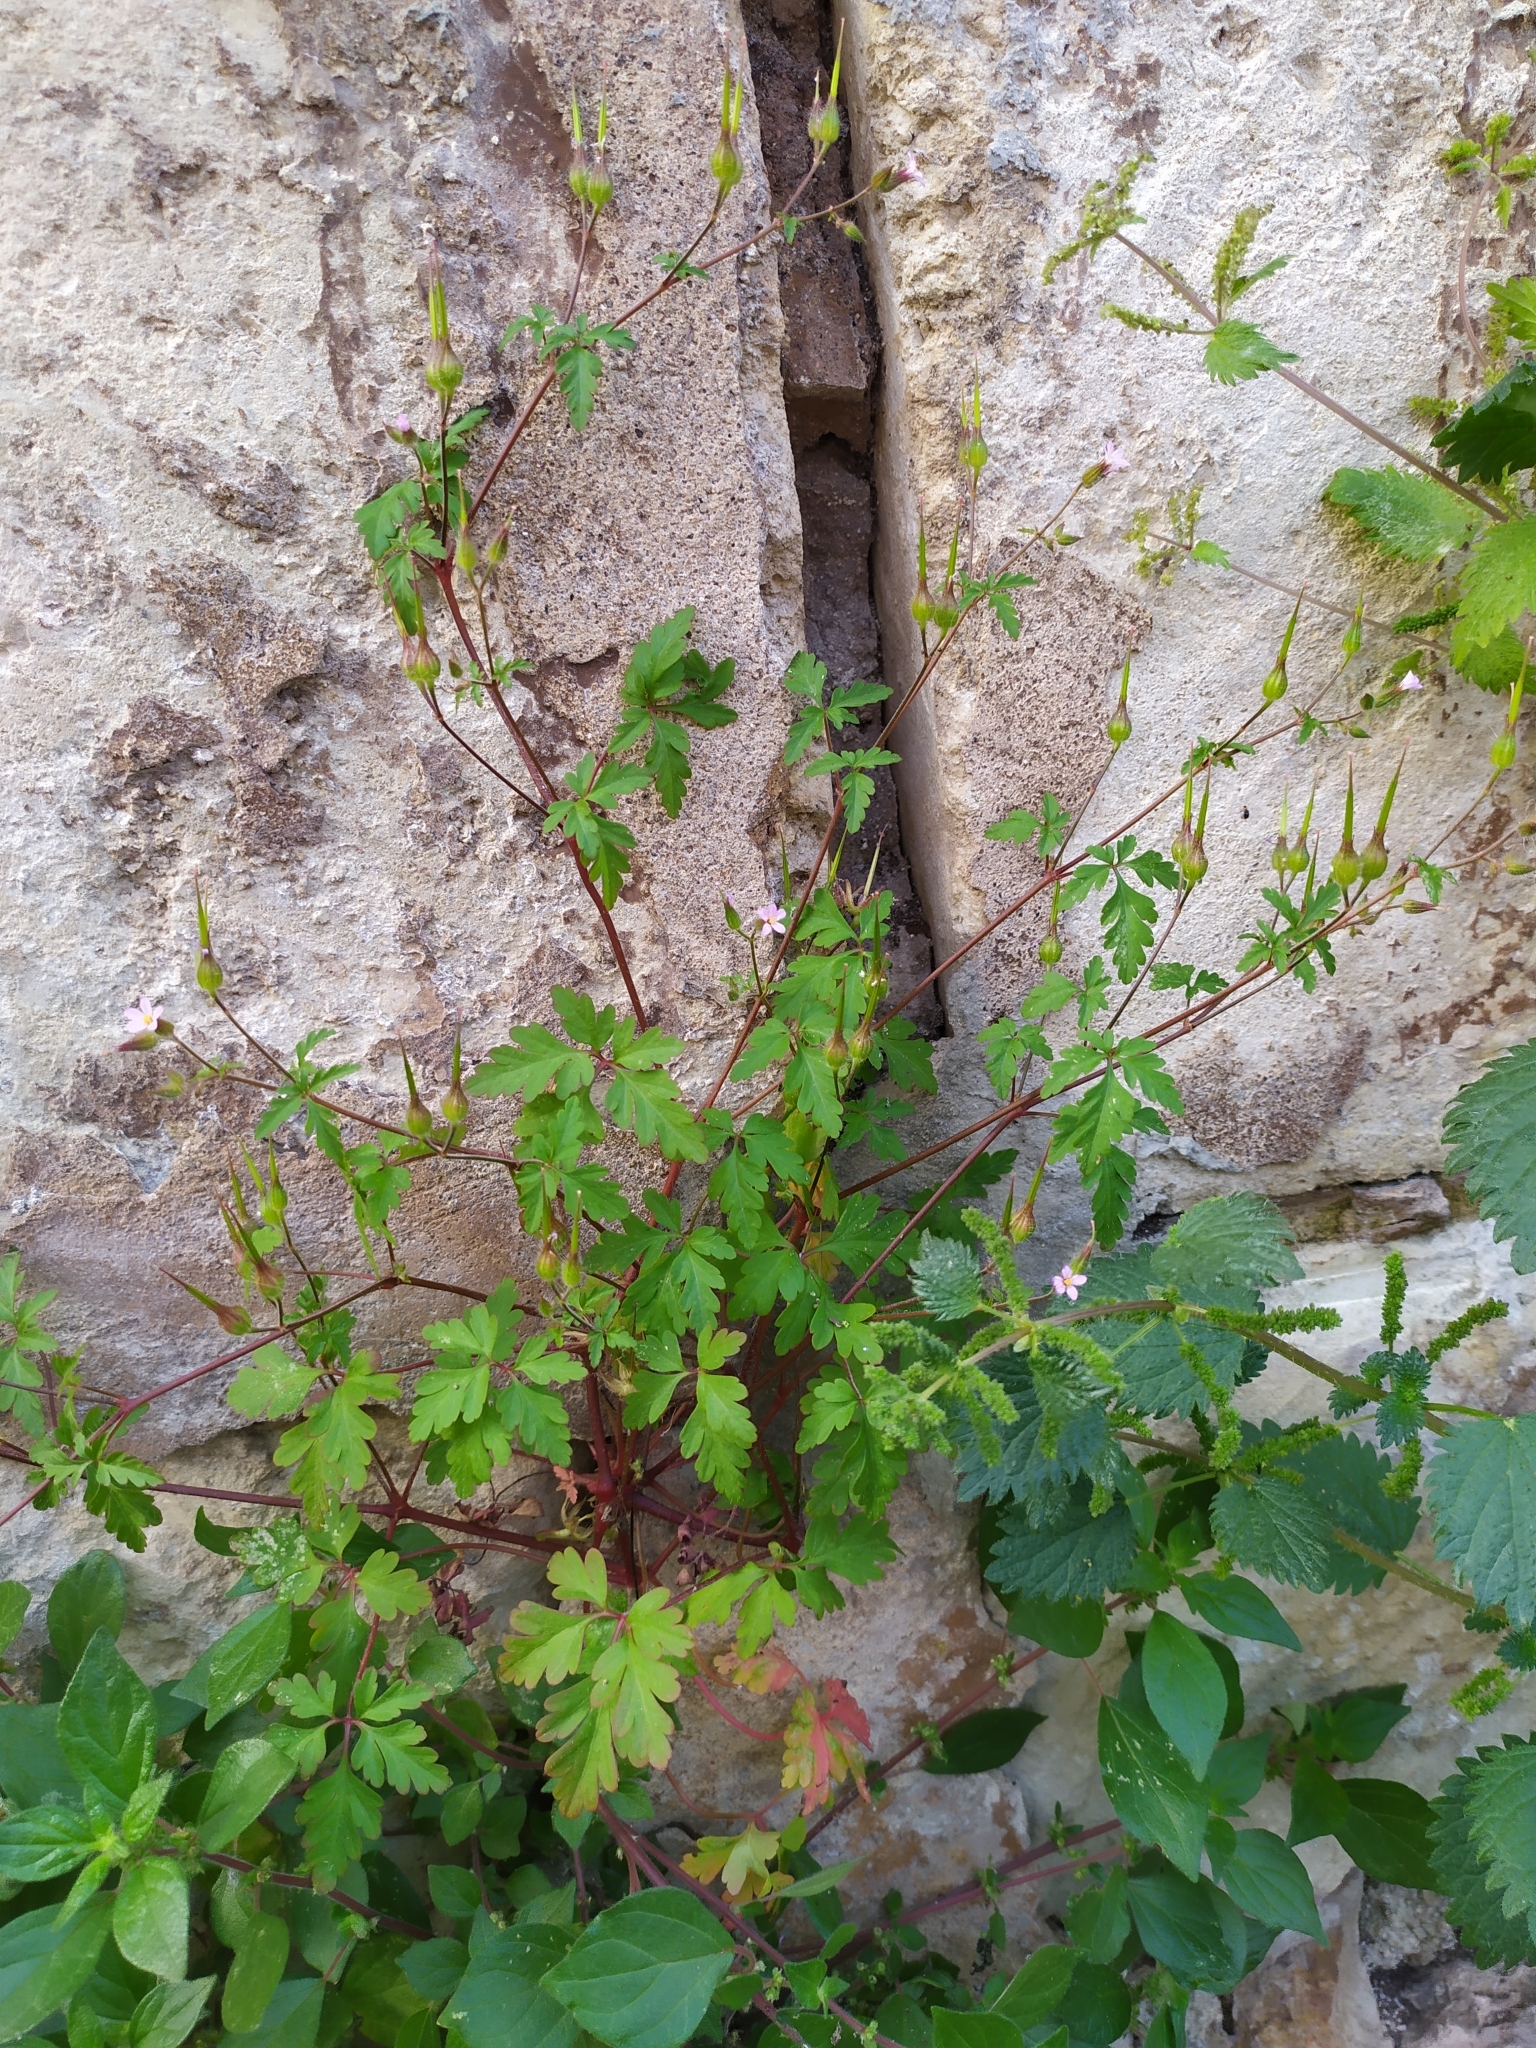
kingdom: Plantae
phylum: Tracheophyta
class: Magnoliopsida
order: Geraniales
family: Geraniaceae
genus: Geranium
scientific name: Geranium purpureum
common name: Little-robin
